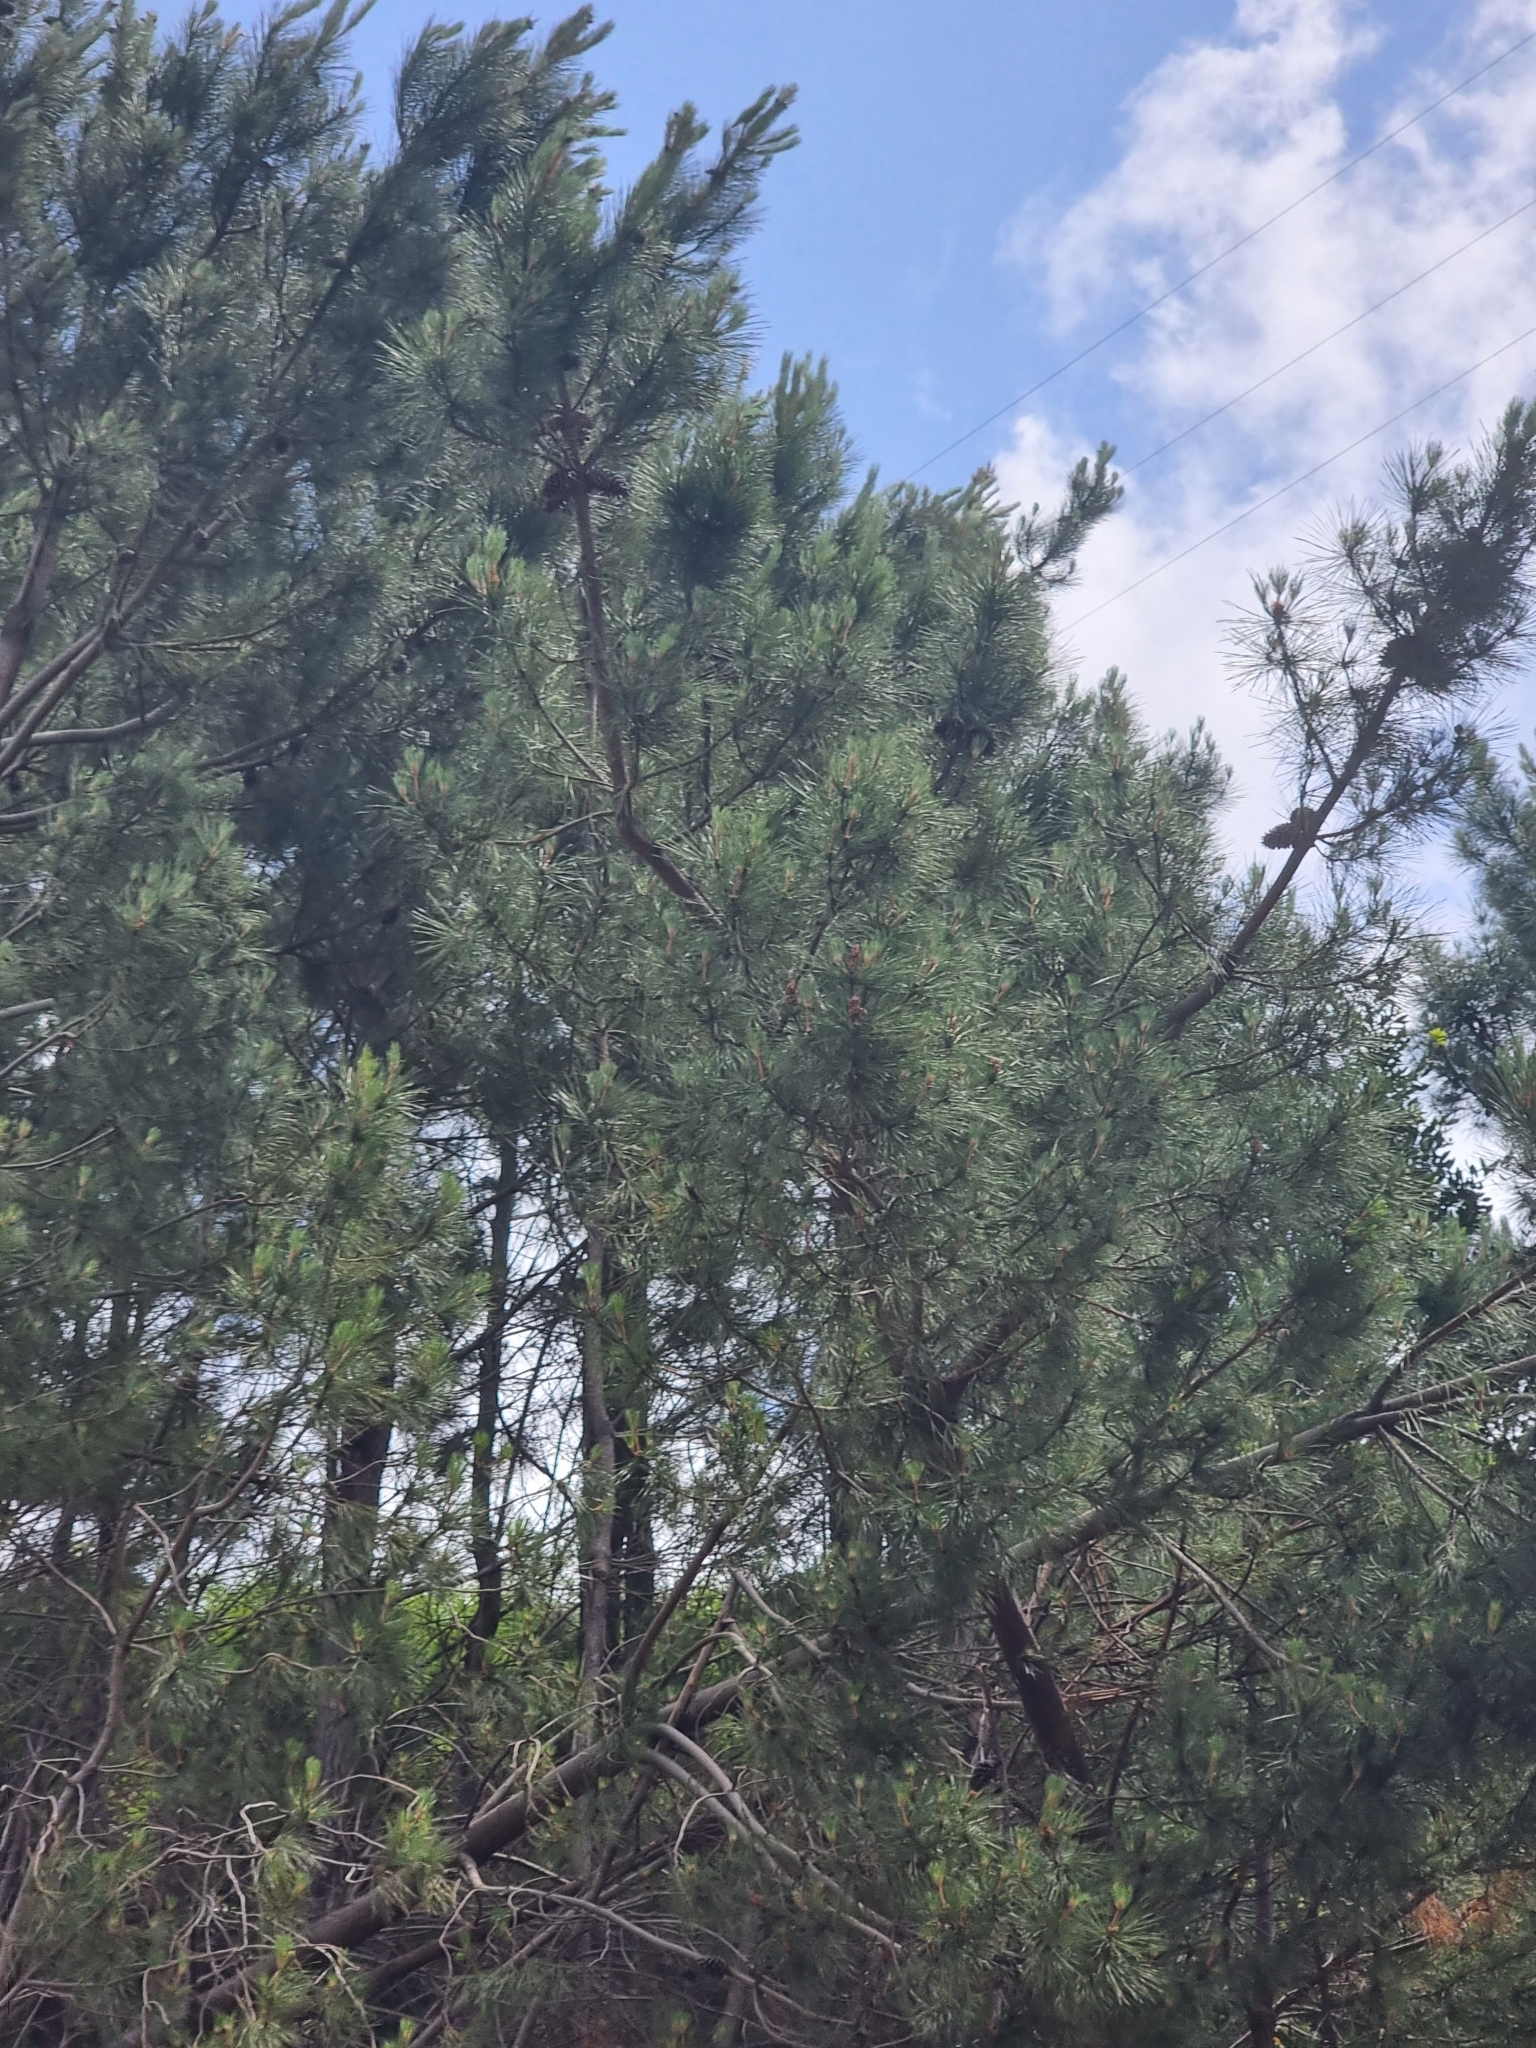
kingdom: Plantae
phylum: Tracheophyta
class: Pinopsida
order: Pinales
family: Pinaceae
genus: Pinus
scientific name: Pinus pinaster
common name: Maritime pine
